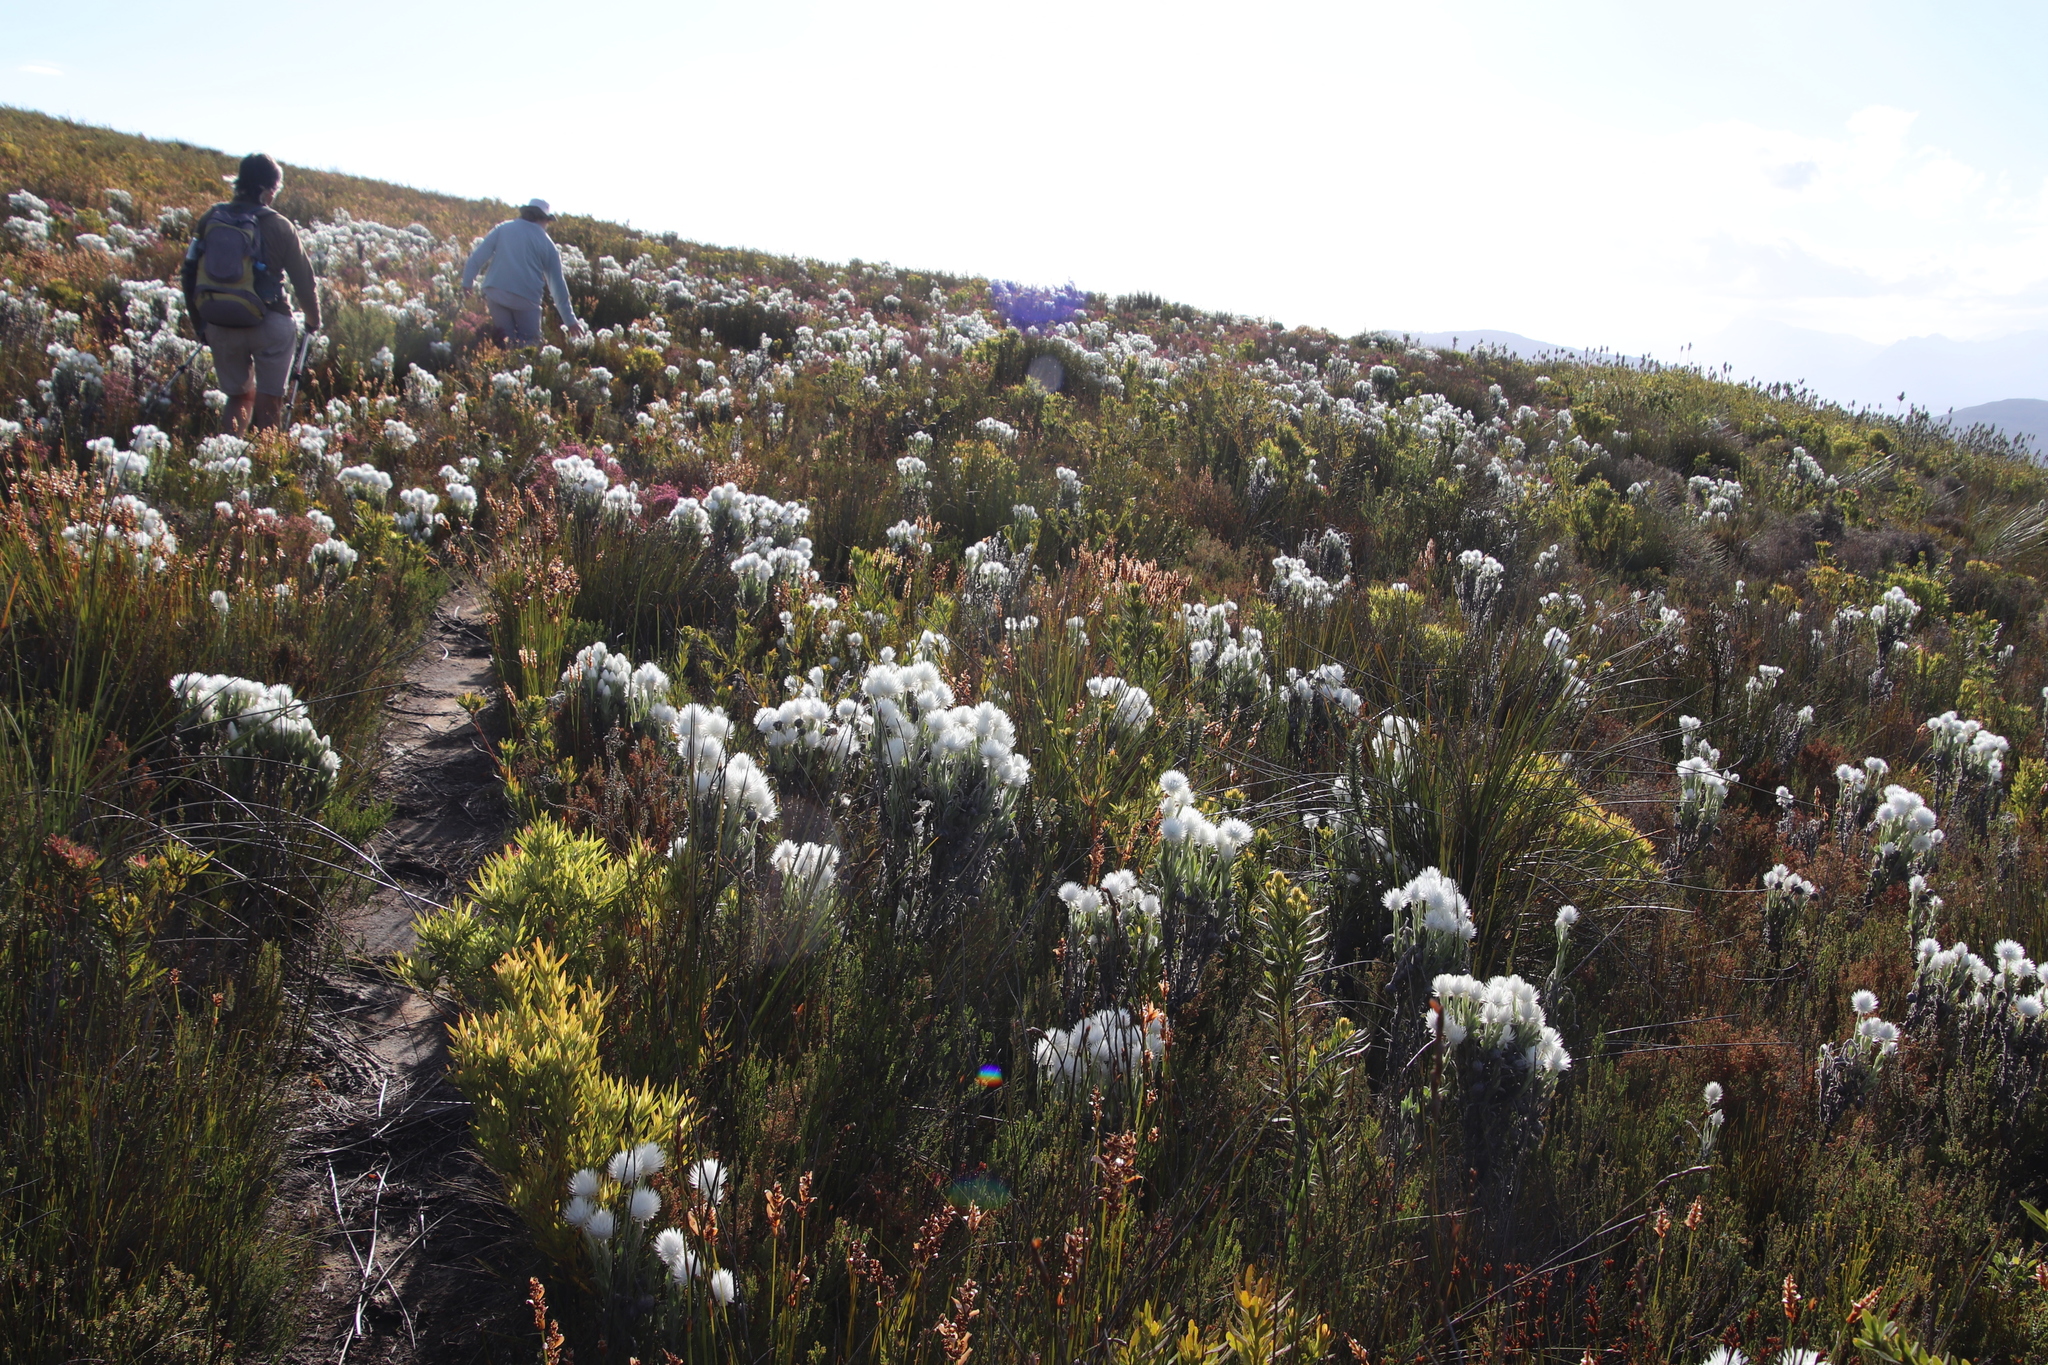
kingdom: Plantae
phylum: Tracheophyta
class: Magnoliopsida
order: Asterales
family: Asteraceae
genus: Syncarpha
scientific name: Syncarpha vestita
